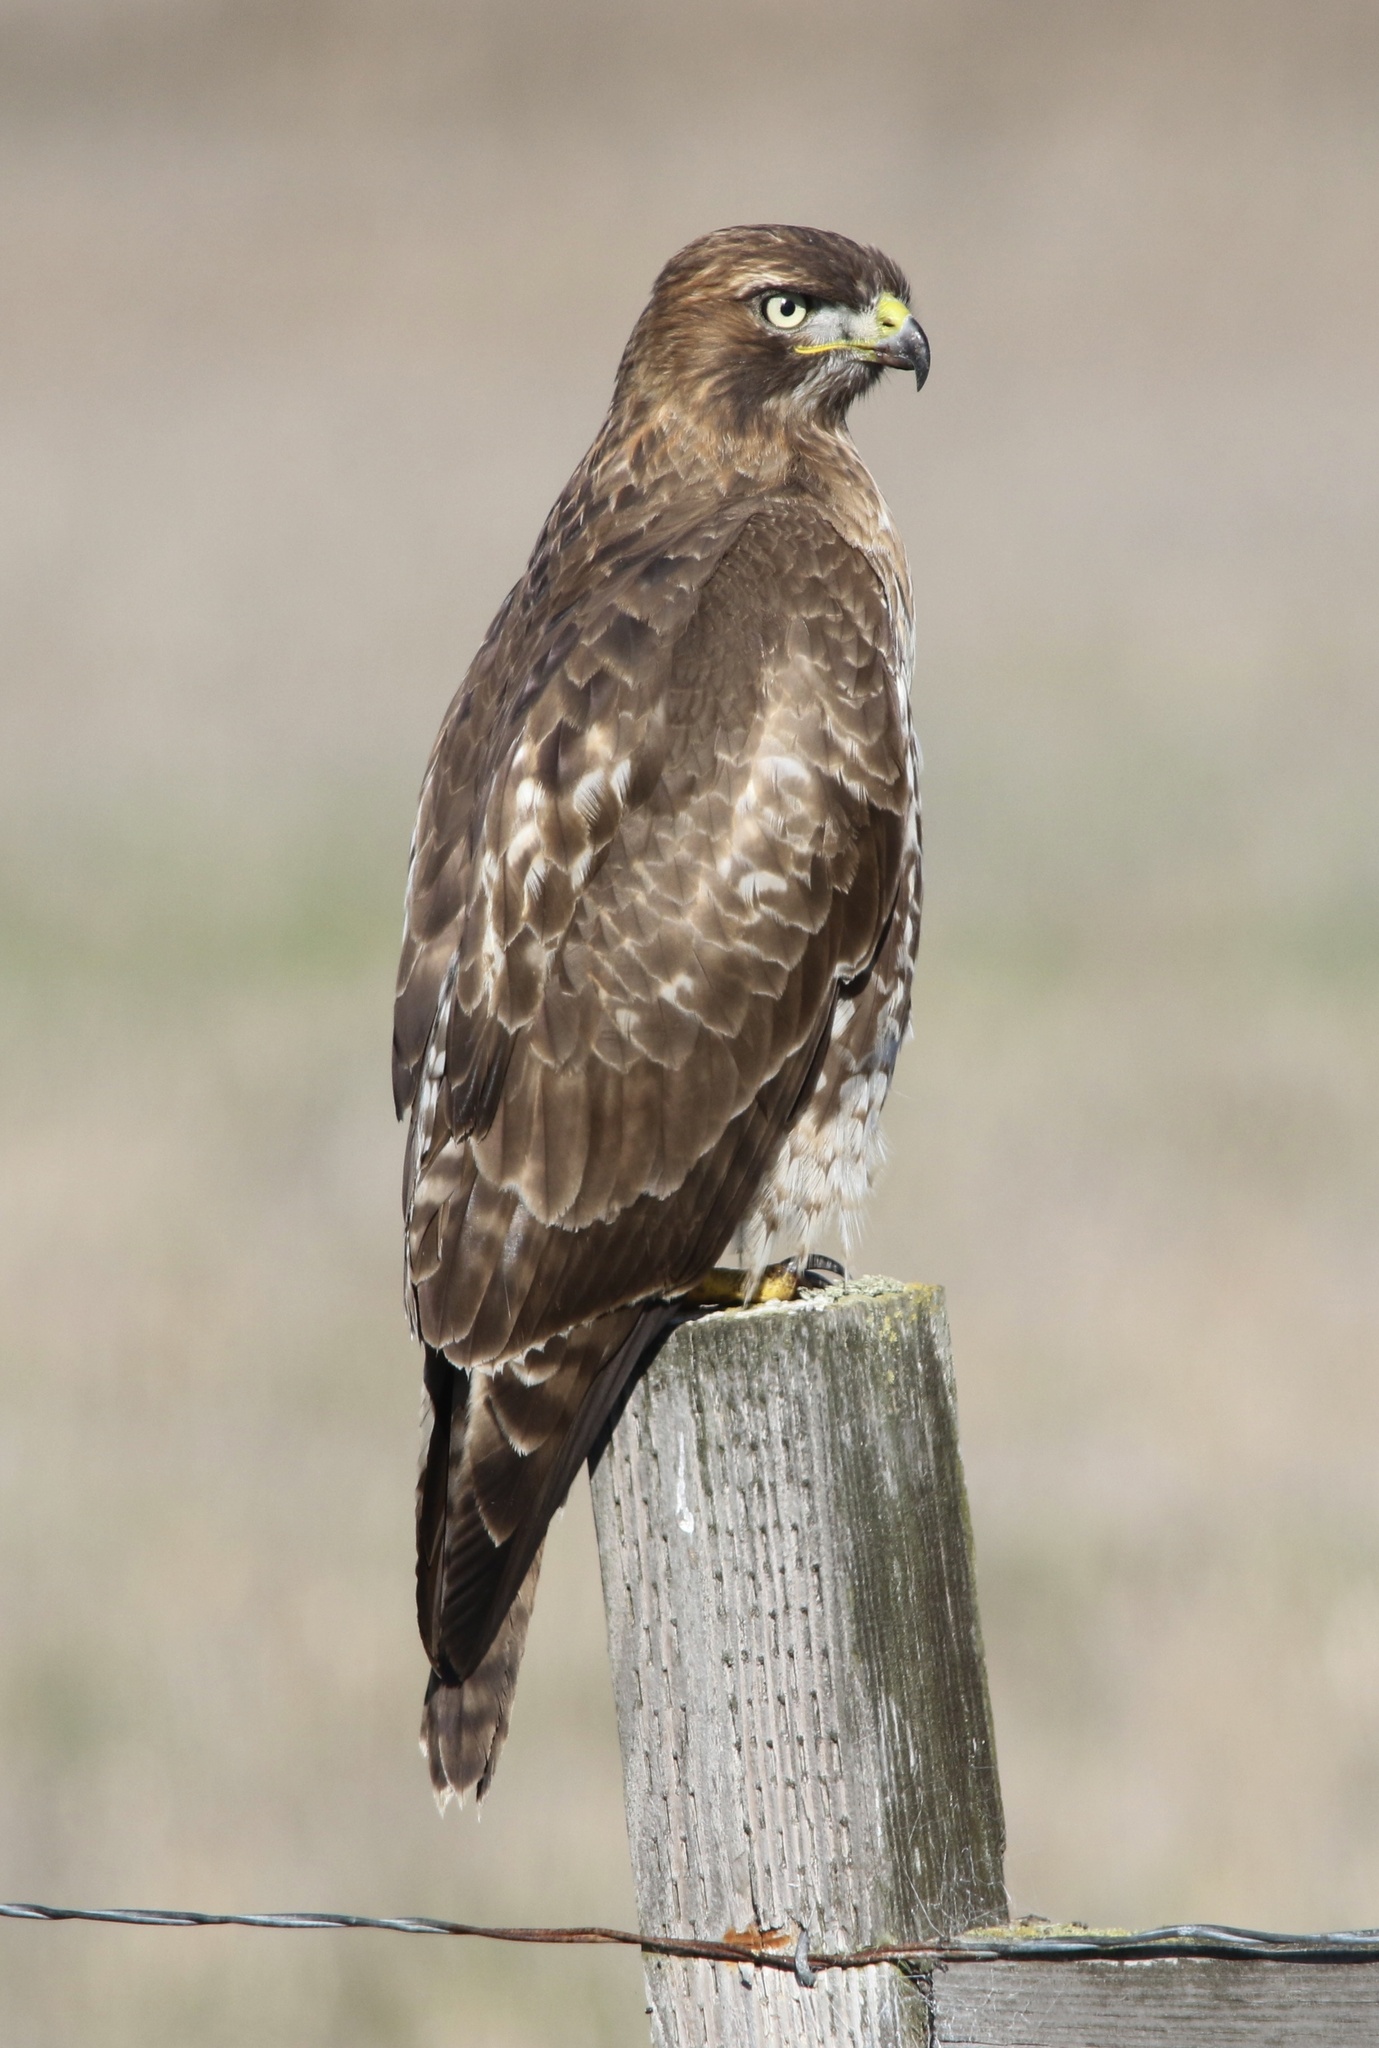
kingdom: Animalia
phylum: Chordata
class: Aves
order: Accipitriformes
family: Accipitridae
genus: Buteo
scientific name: Buteo jamaicensis
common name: Red-tailed hawk
